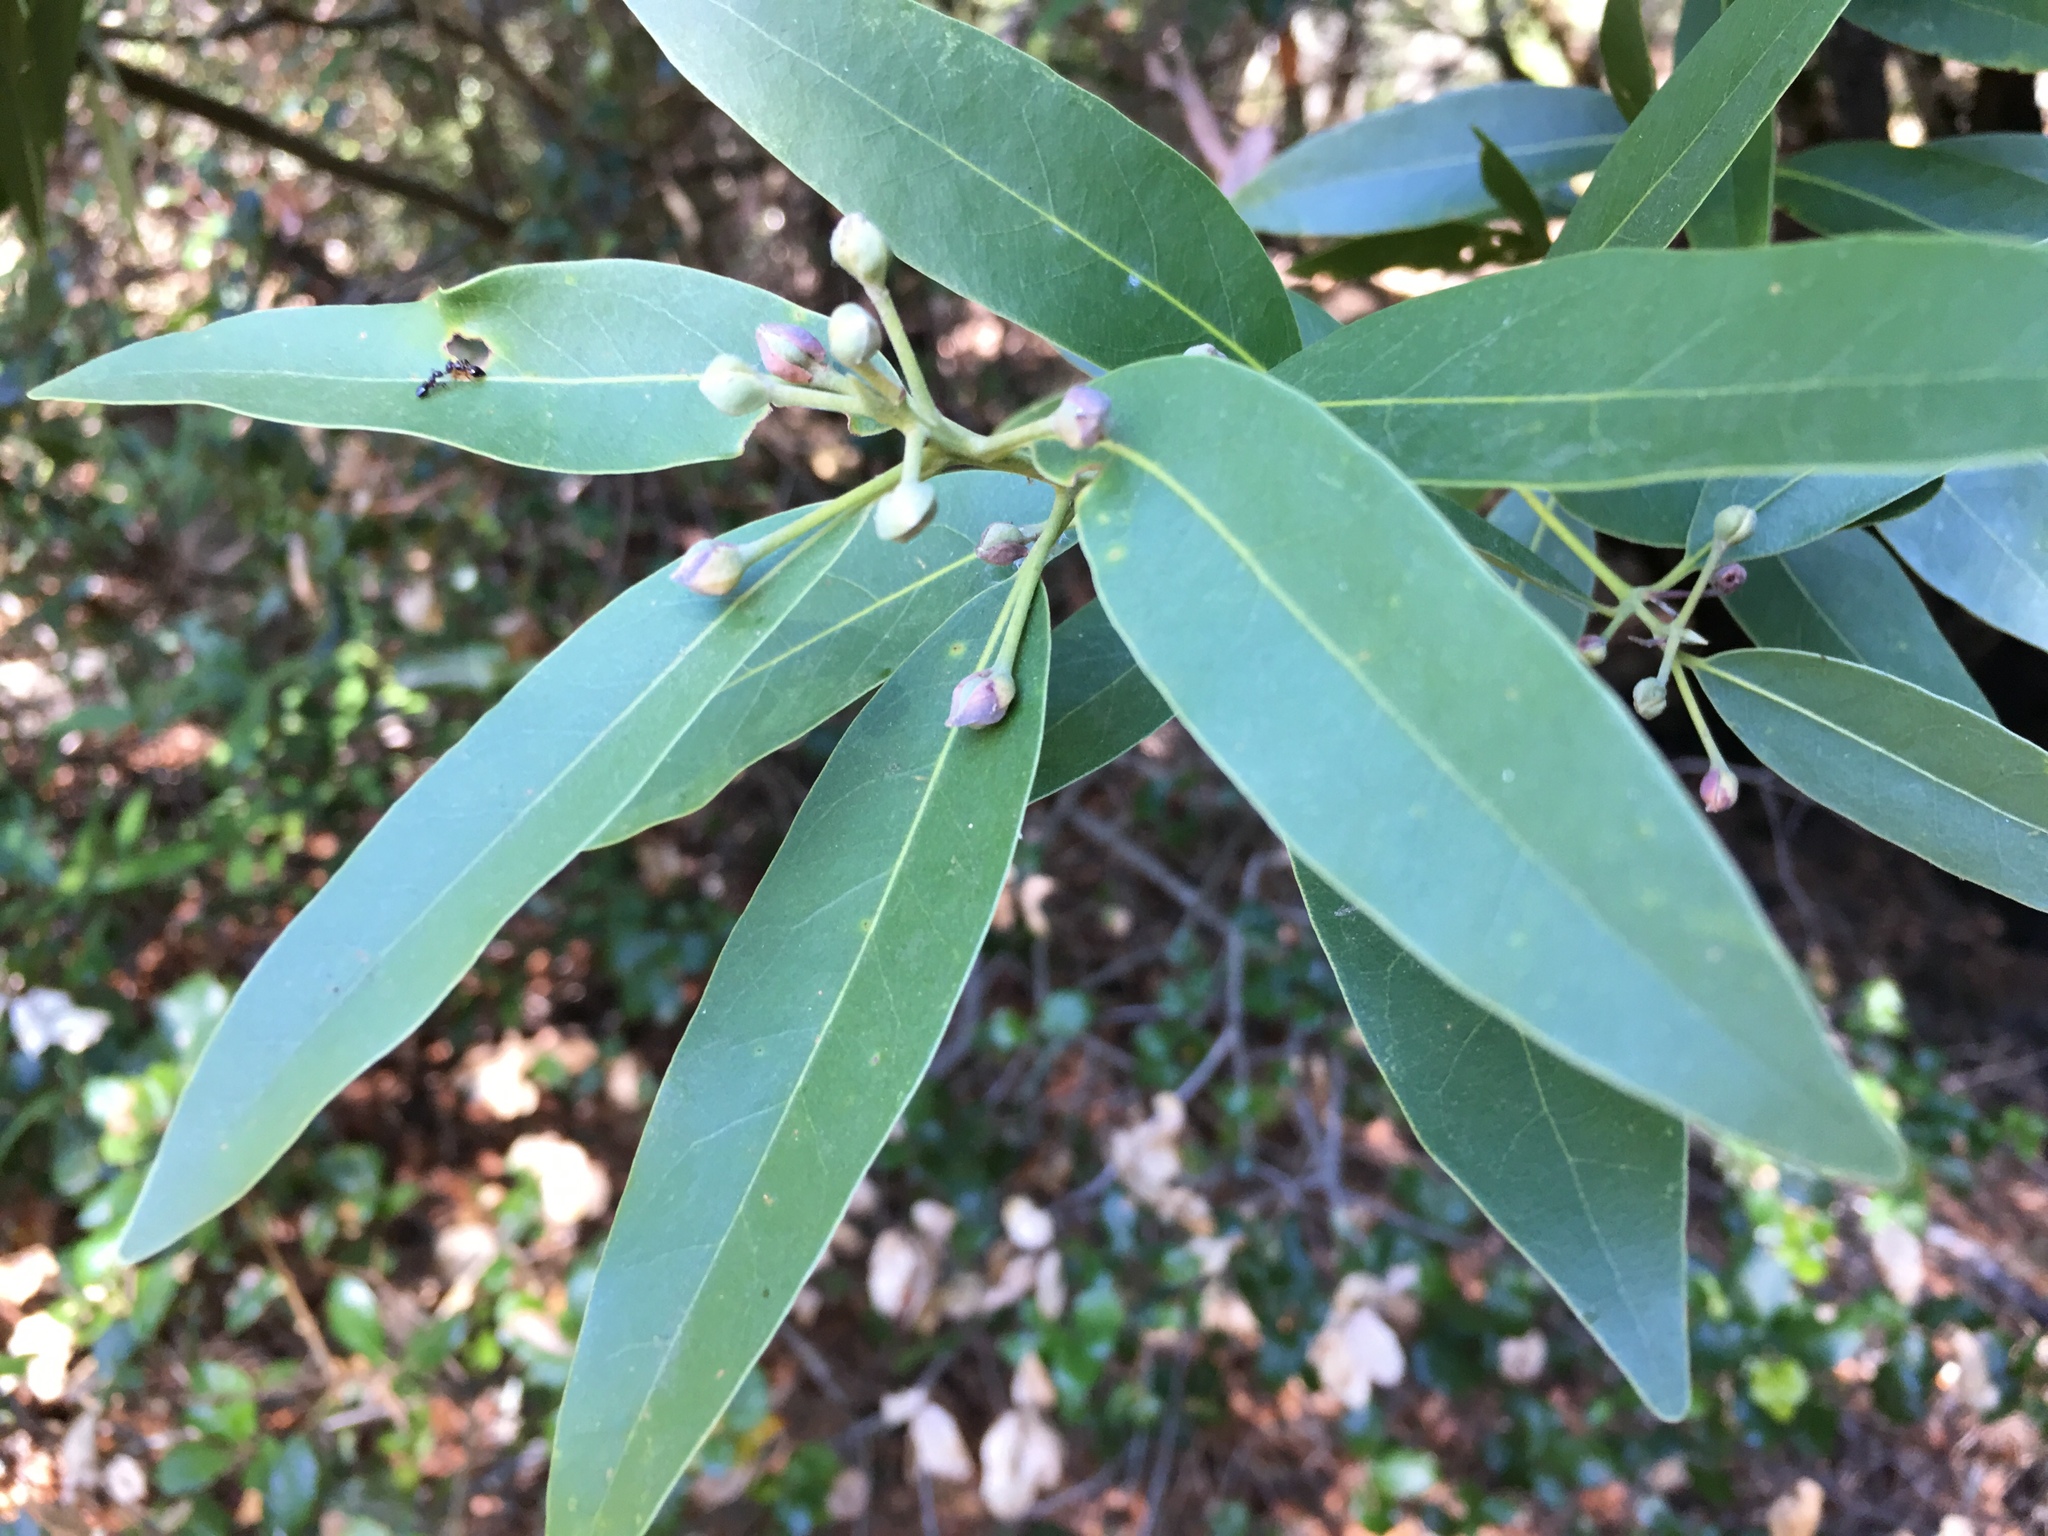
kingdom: Plantae
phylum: Tracheophyta
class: Magnoliopsida
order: Laurales
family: Lauraceae
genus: Umbellularia
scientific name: Umbellularia californica
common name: California bay
